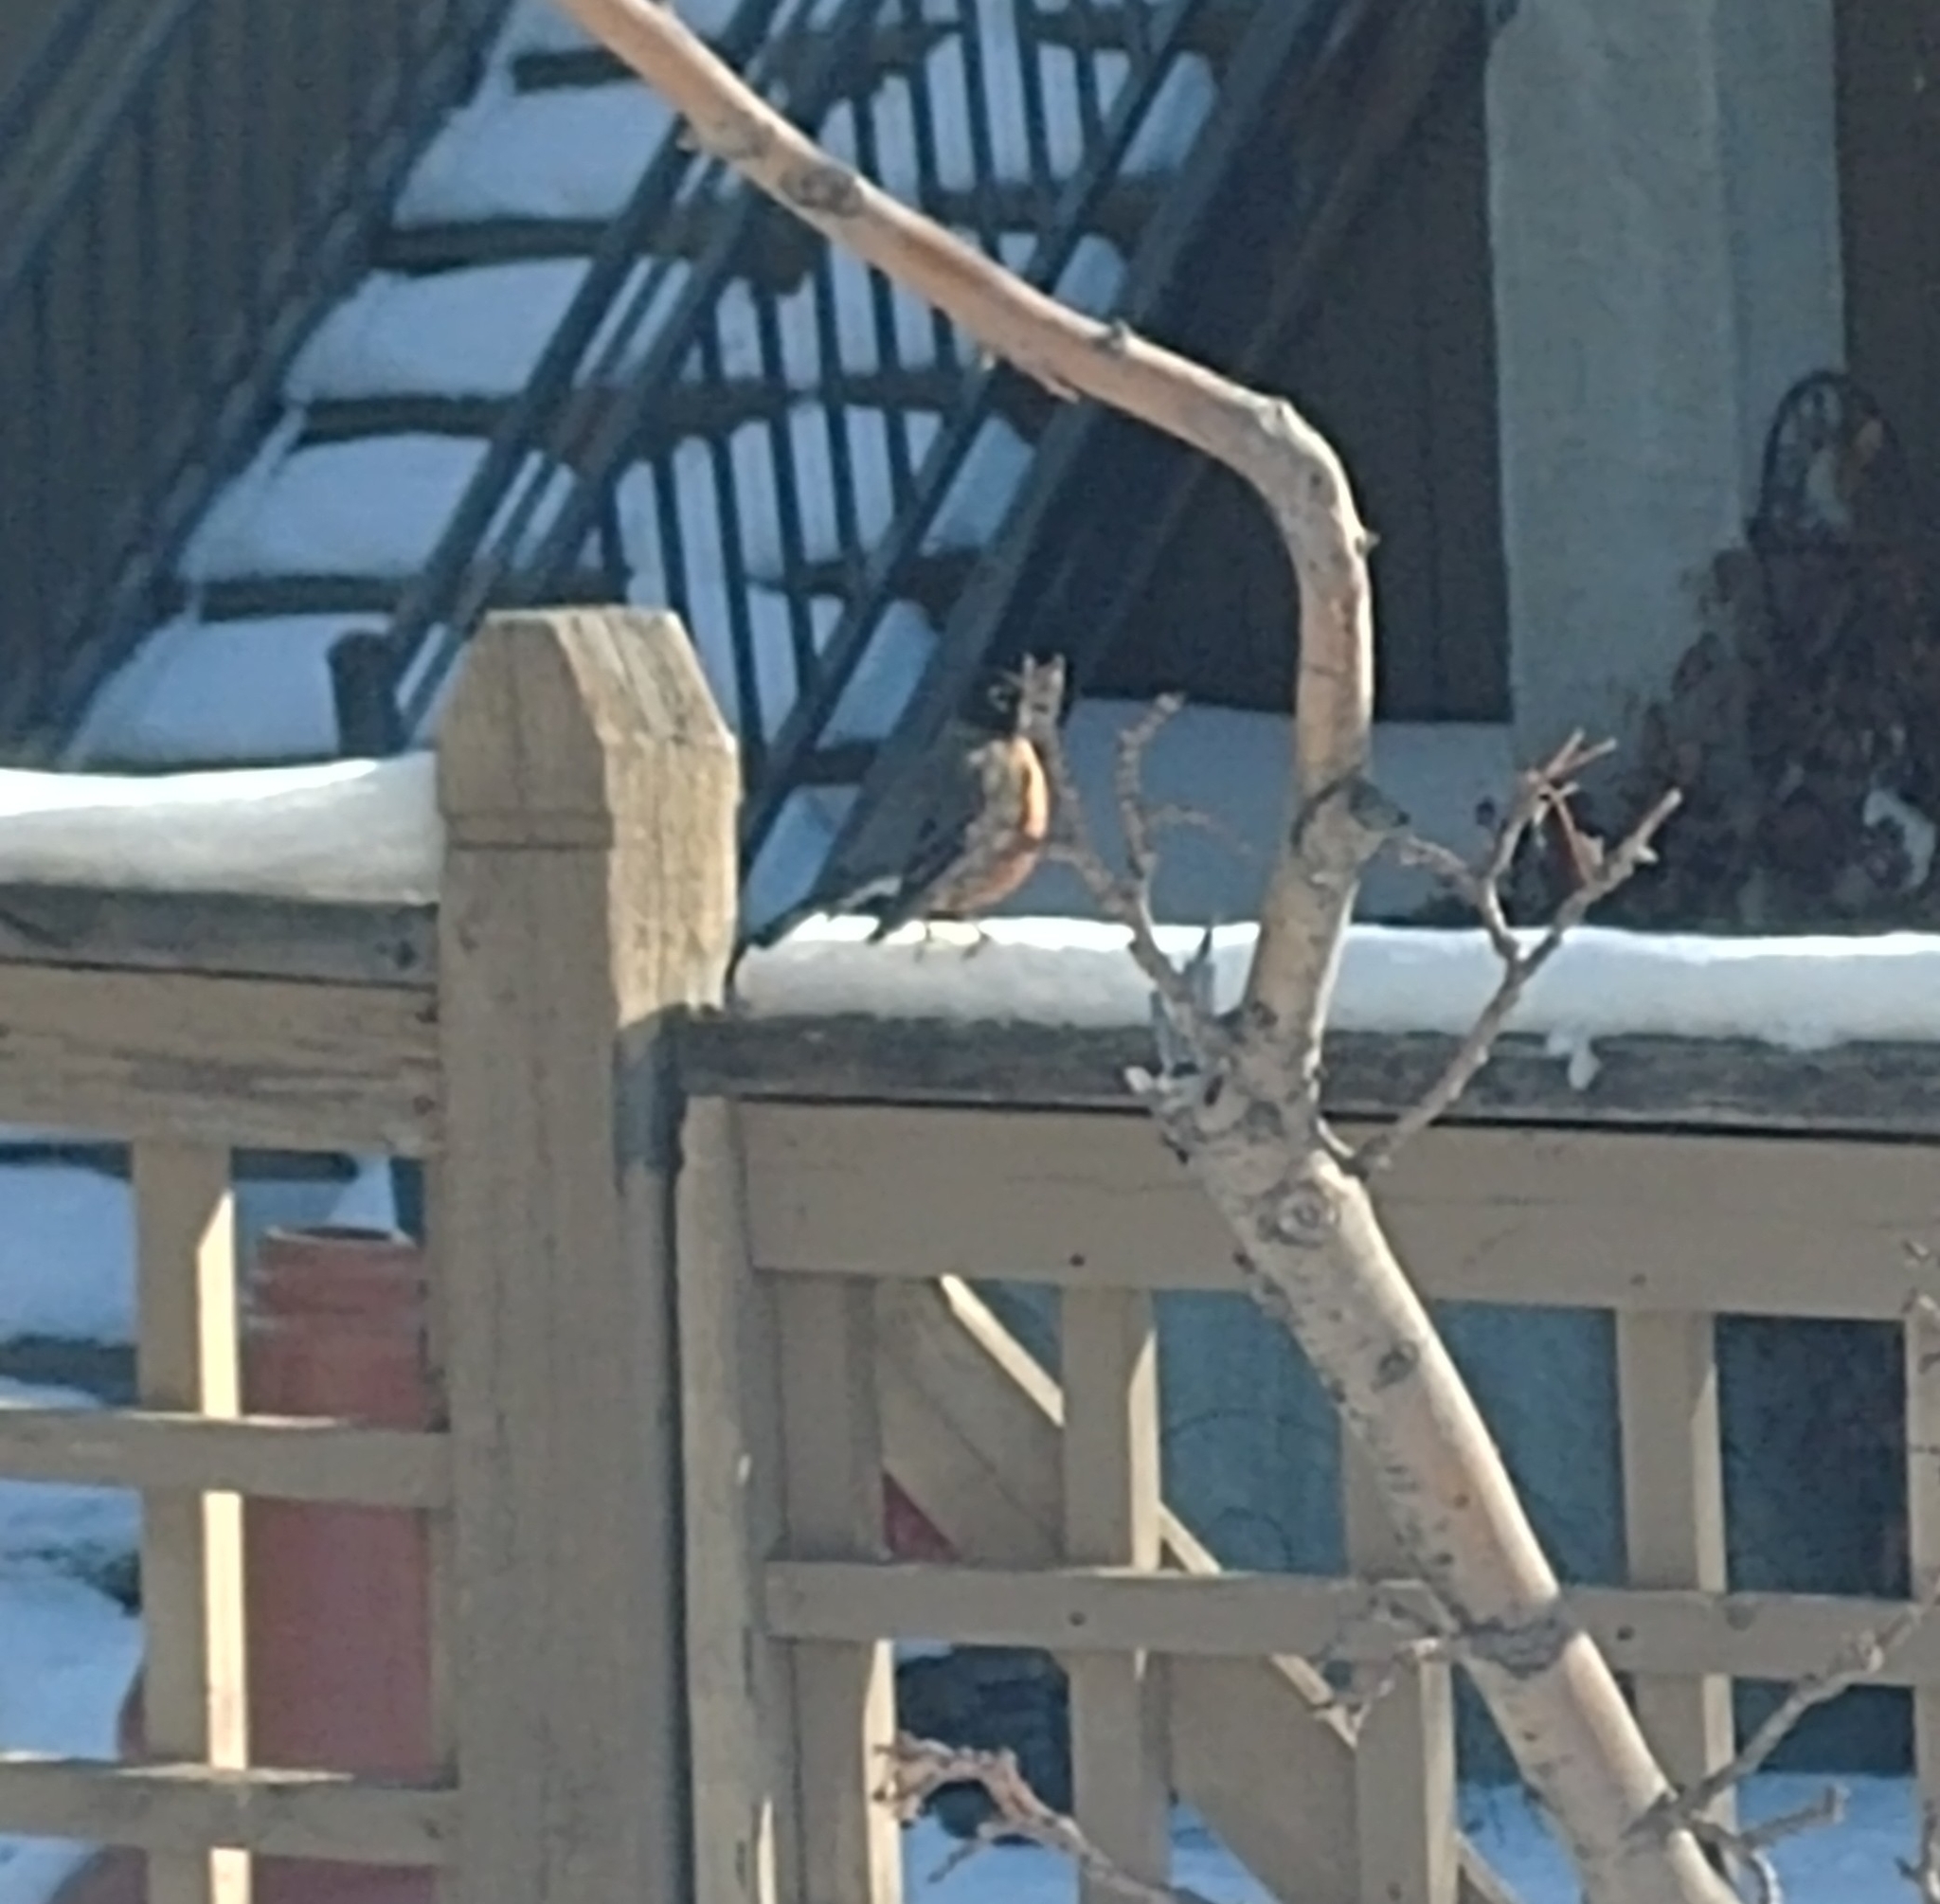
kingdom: Animalia
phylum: Chordata
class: Aves
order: Passeriformes
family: Turdidae
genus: Turdus
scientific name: Turdus migratorius
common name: American robin
